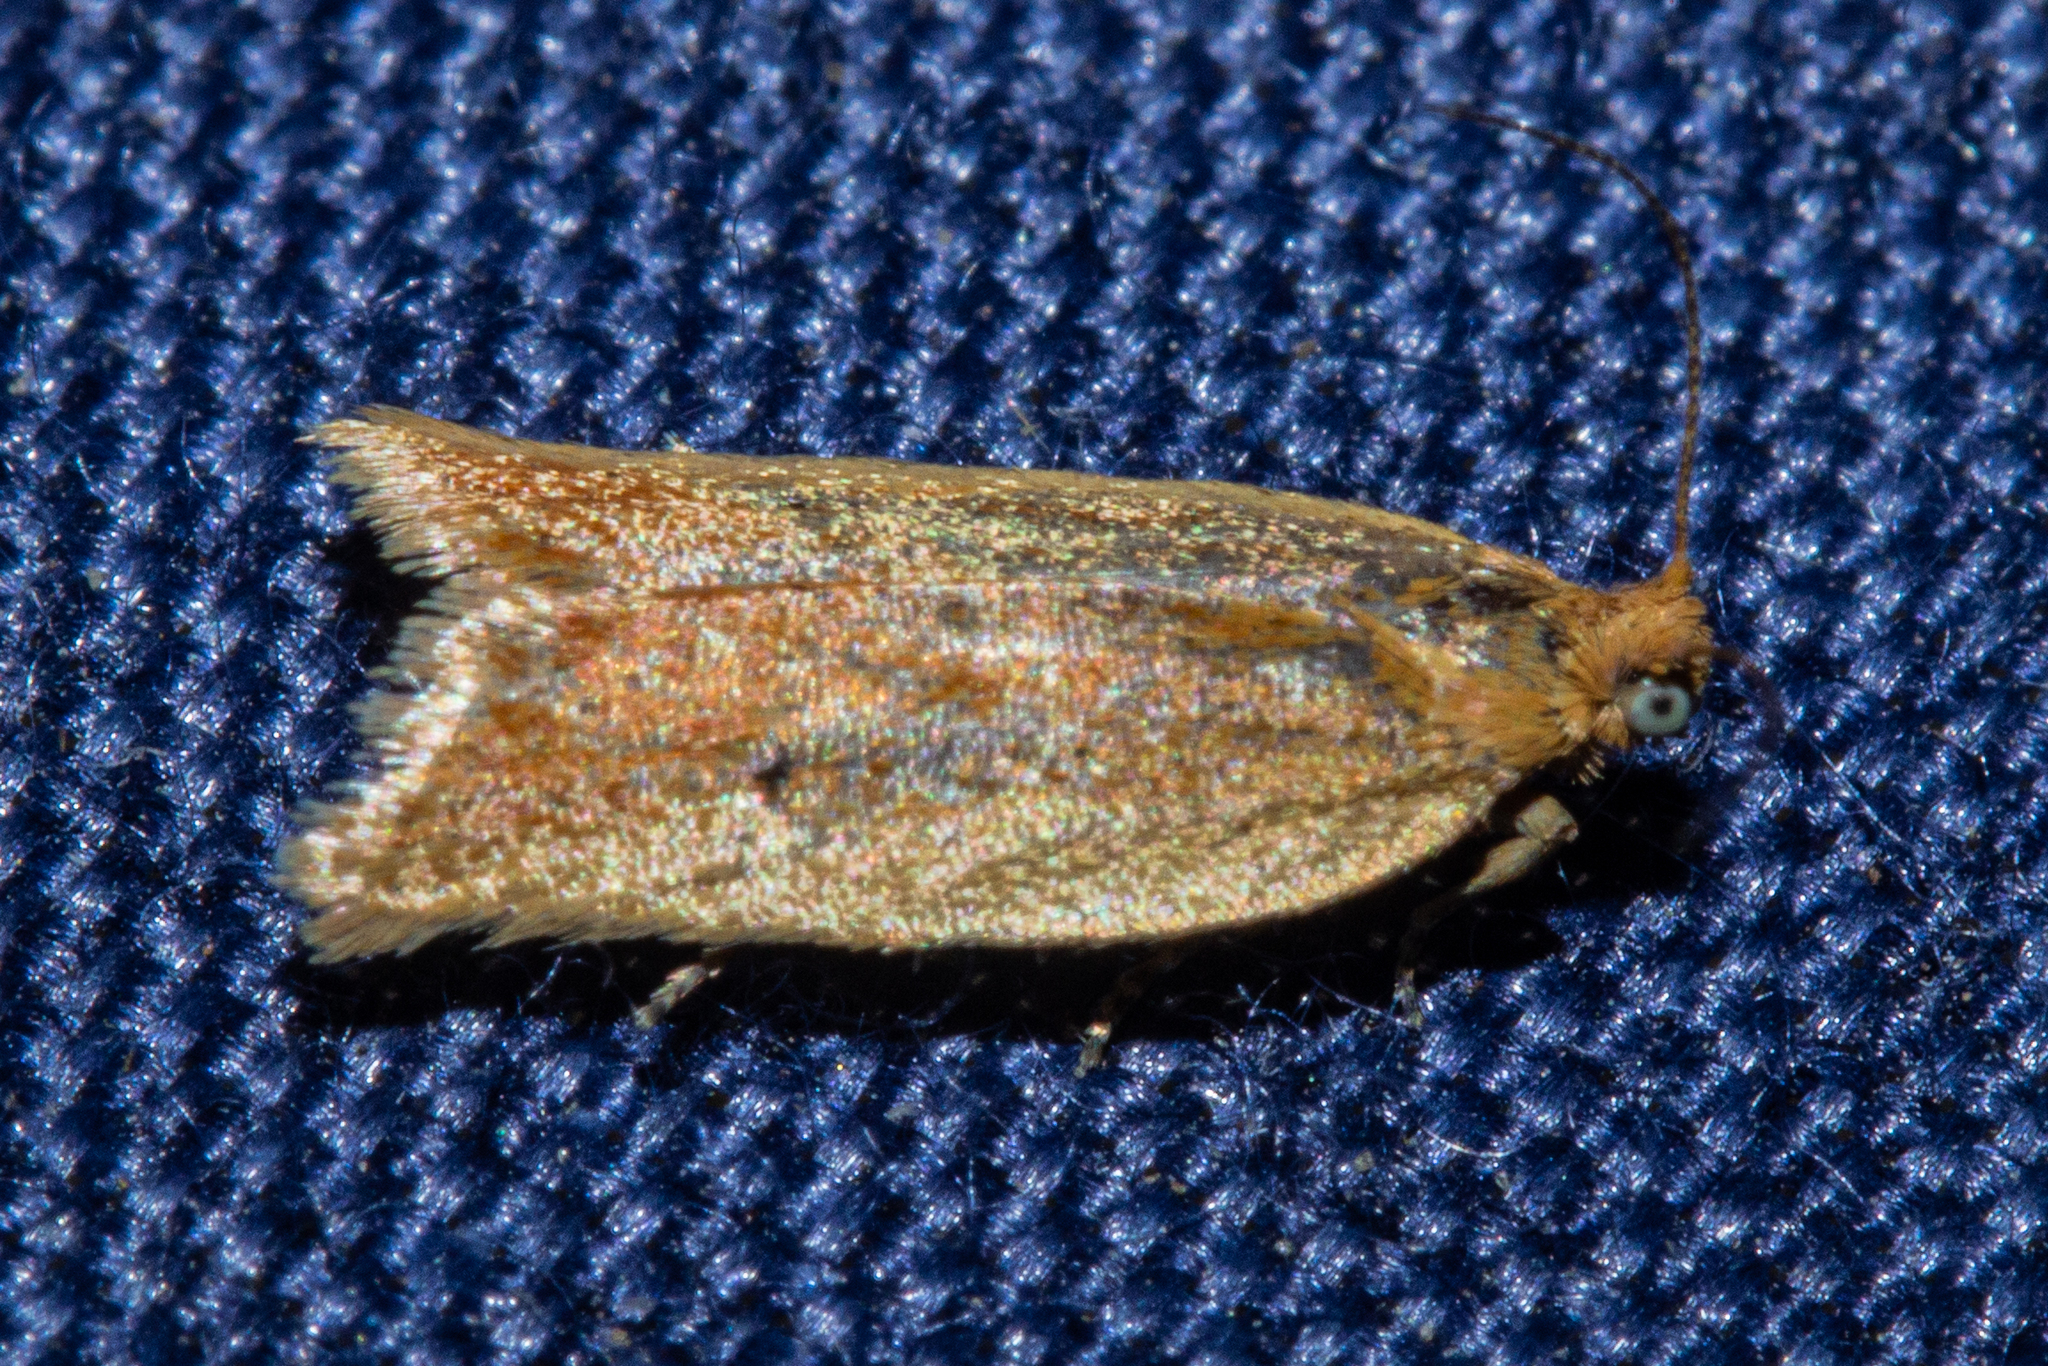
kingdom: Animalia
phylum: Arthropoda
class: Insecta
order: Lepidoptera
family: Tortricidae
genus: Epichorista
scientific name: Epichorista siriana
